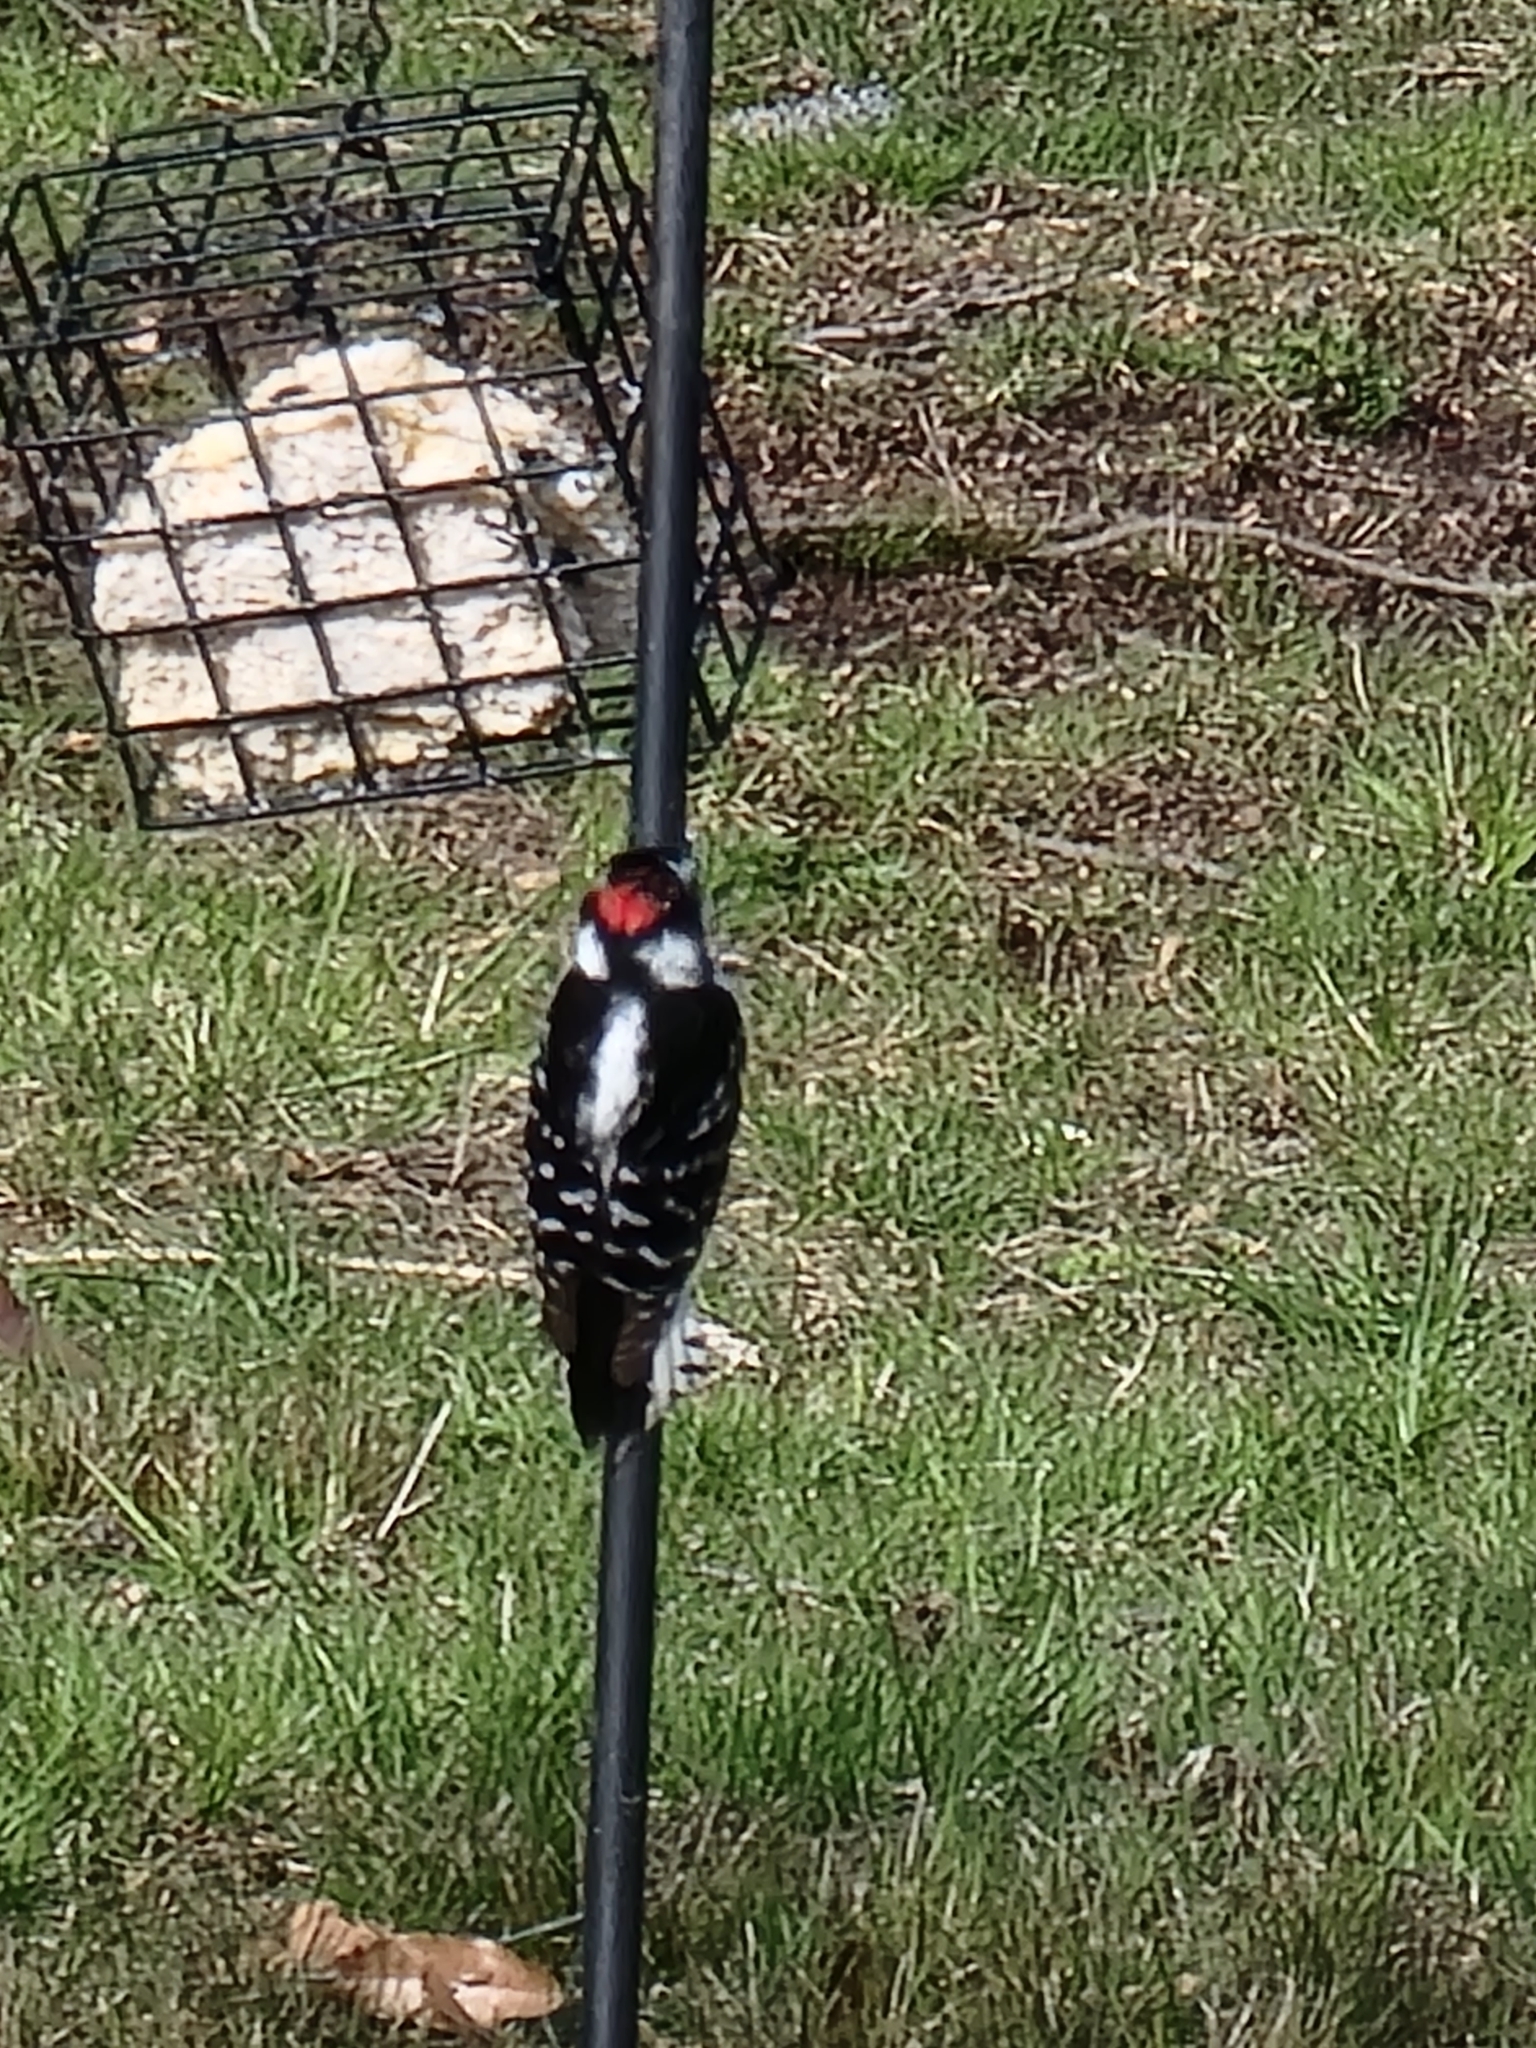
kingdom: Animalia
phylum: Chordata
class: Aves
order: Piciformes
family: Picidae
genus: Dryobates
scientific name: Dryobates pubescens
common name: Downy woodpecker
